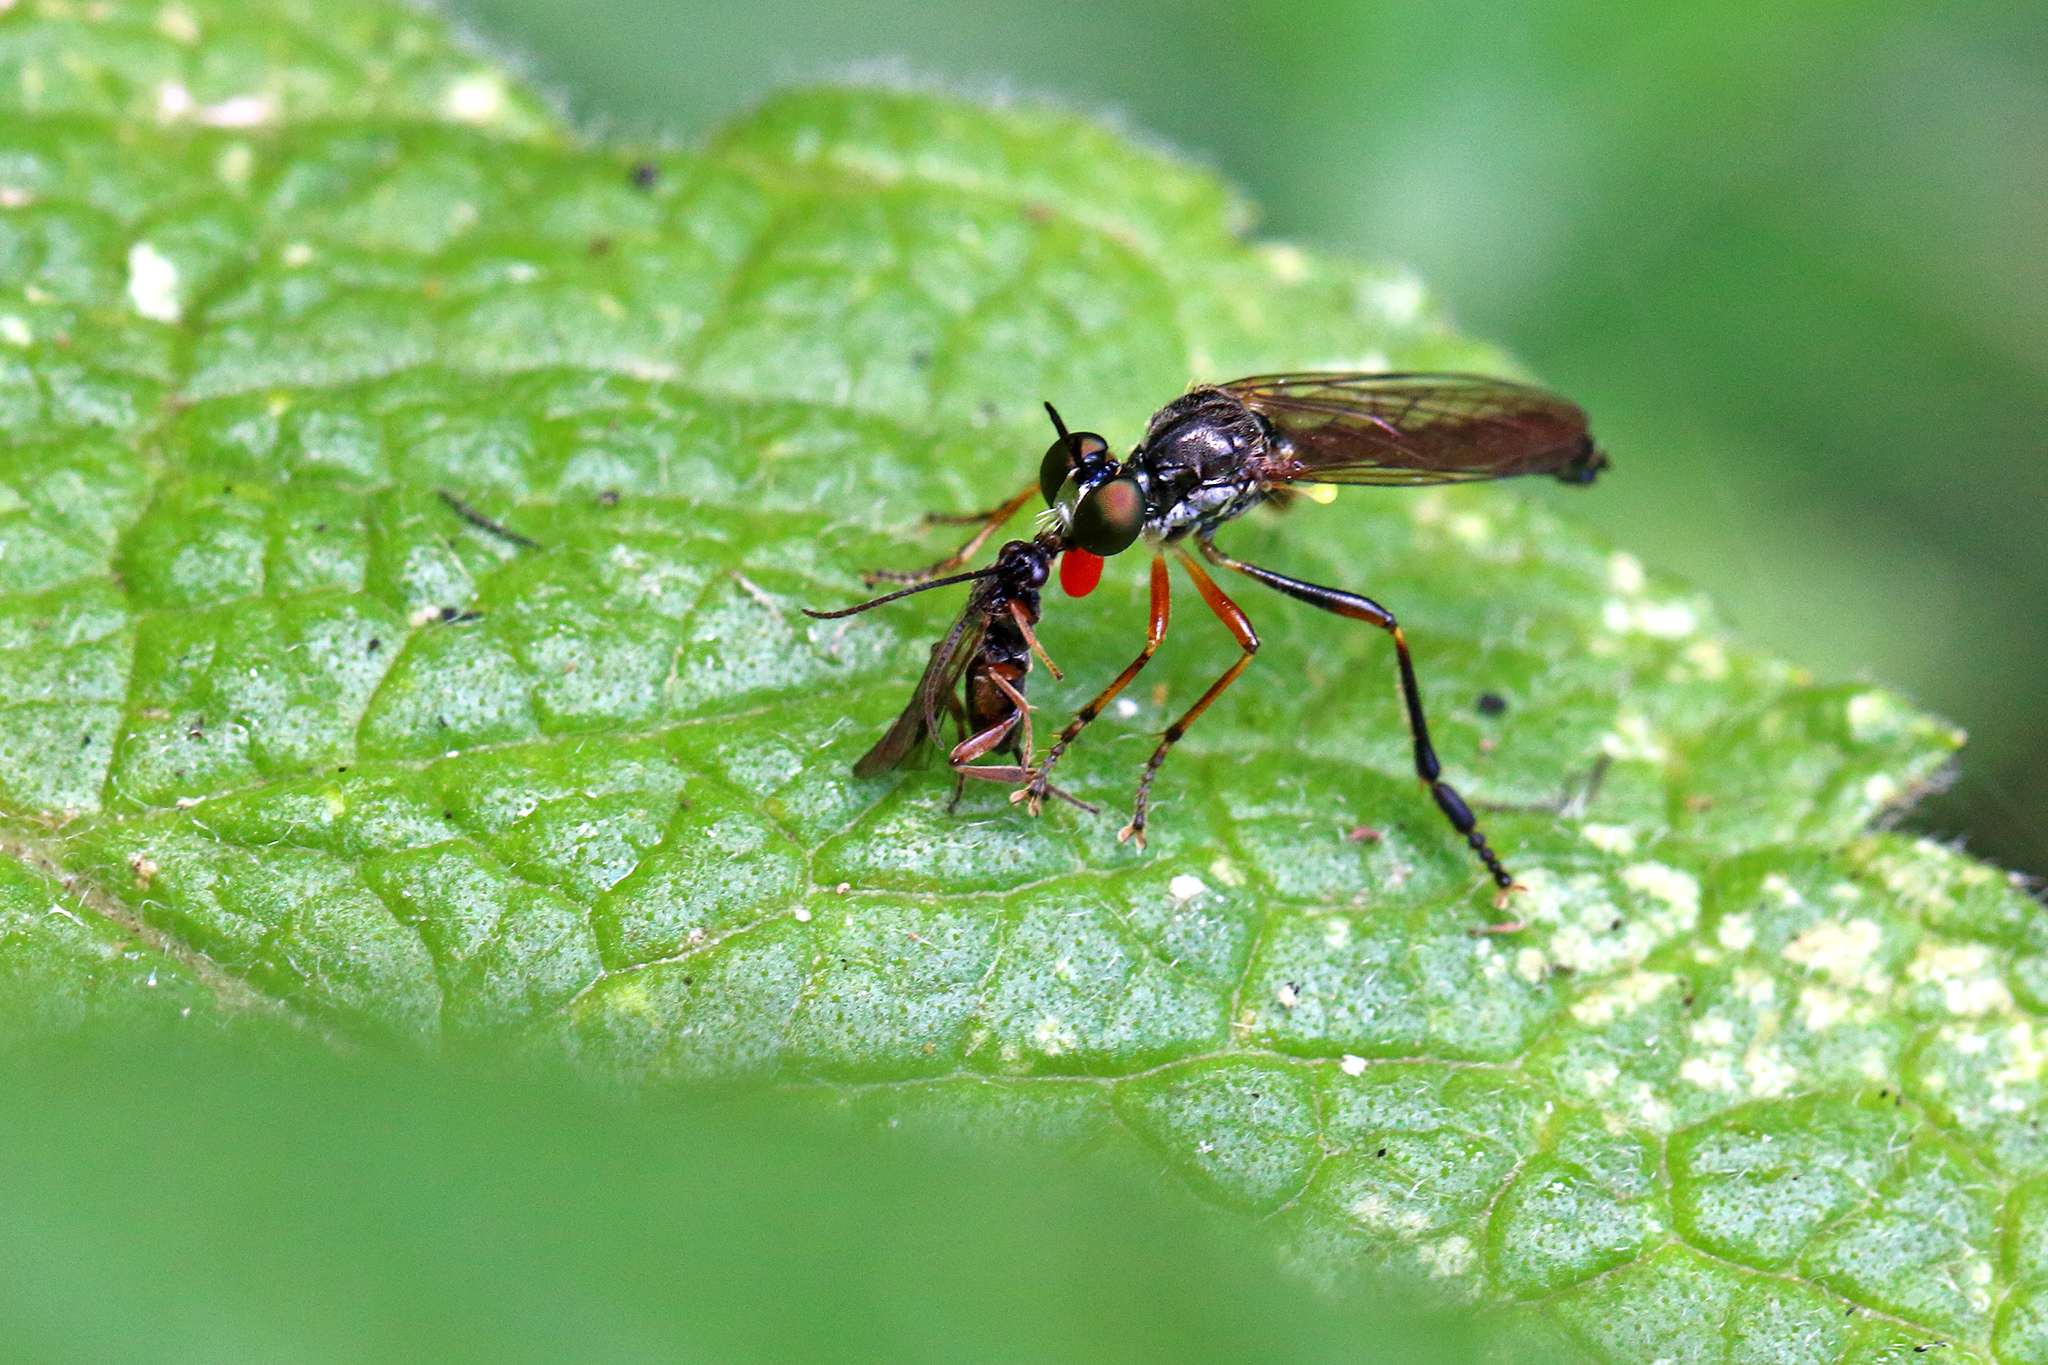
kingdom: Animalia
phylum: Arthropoda
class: Insecta
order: Diptera
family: Asilidae
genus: Dioctria
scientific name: Dioctria hyalipennis
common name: Stripe-legged robberfly
